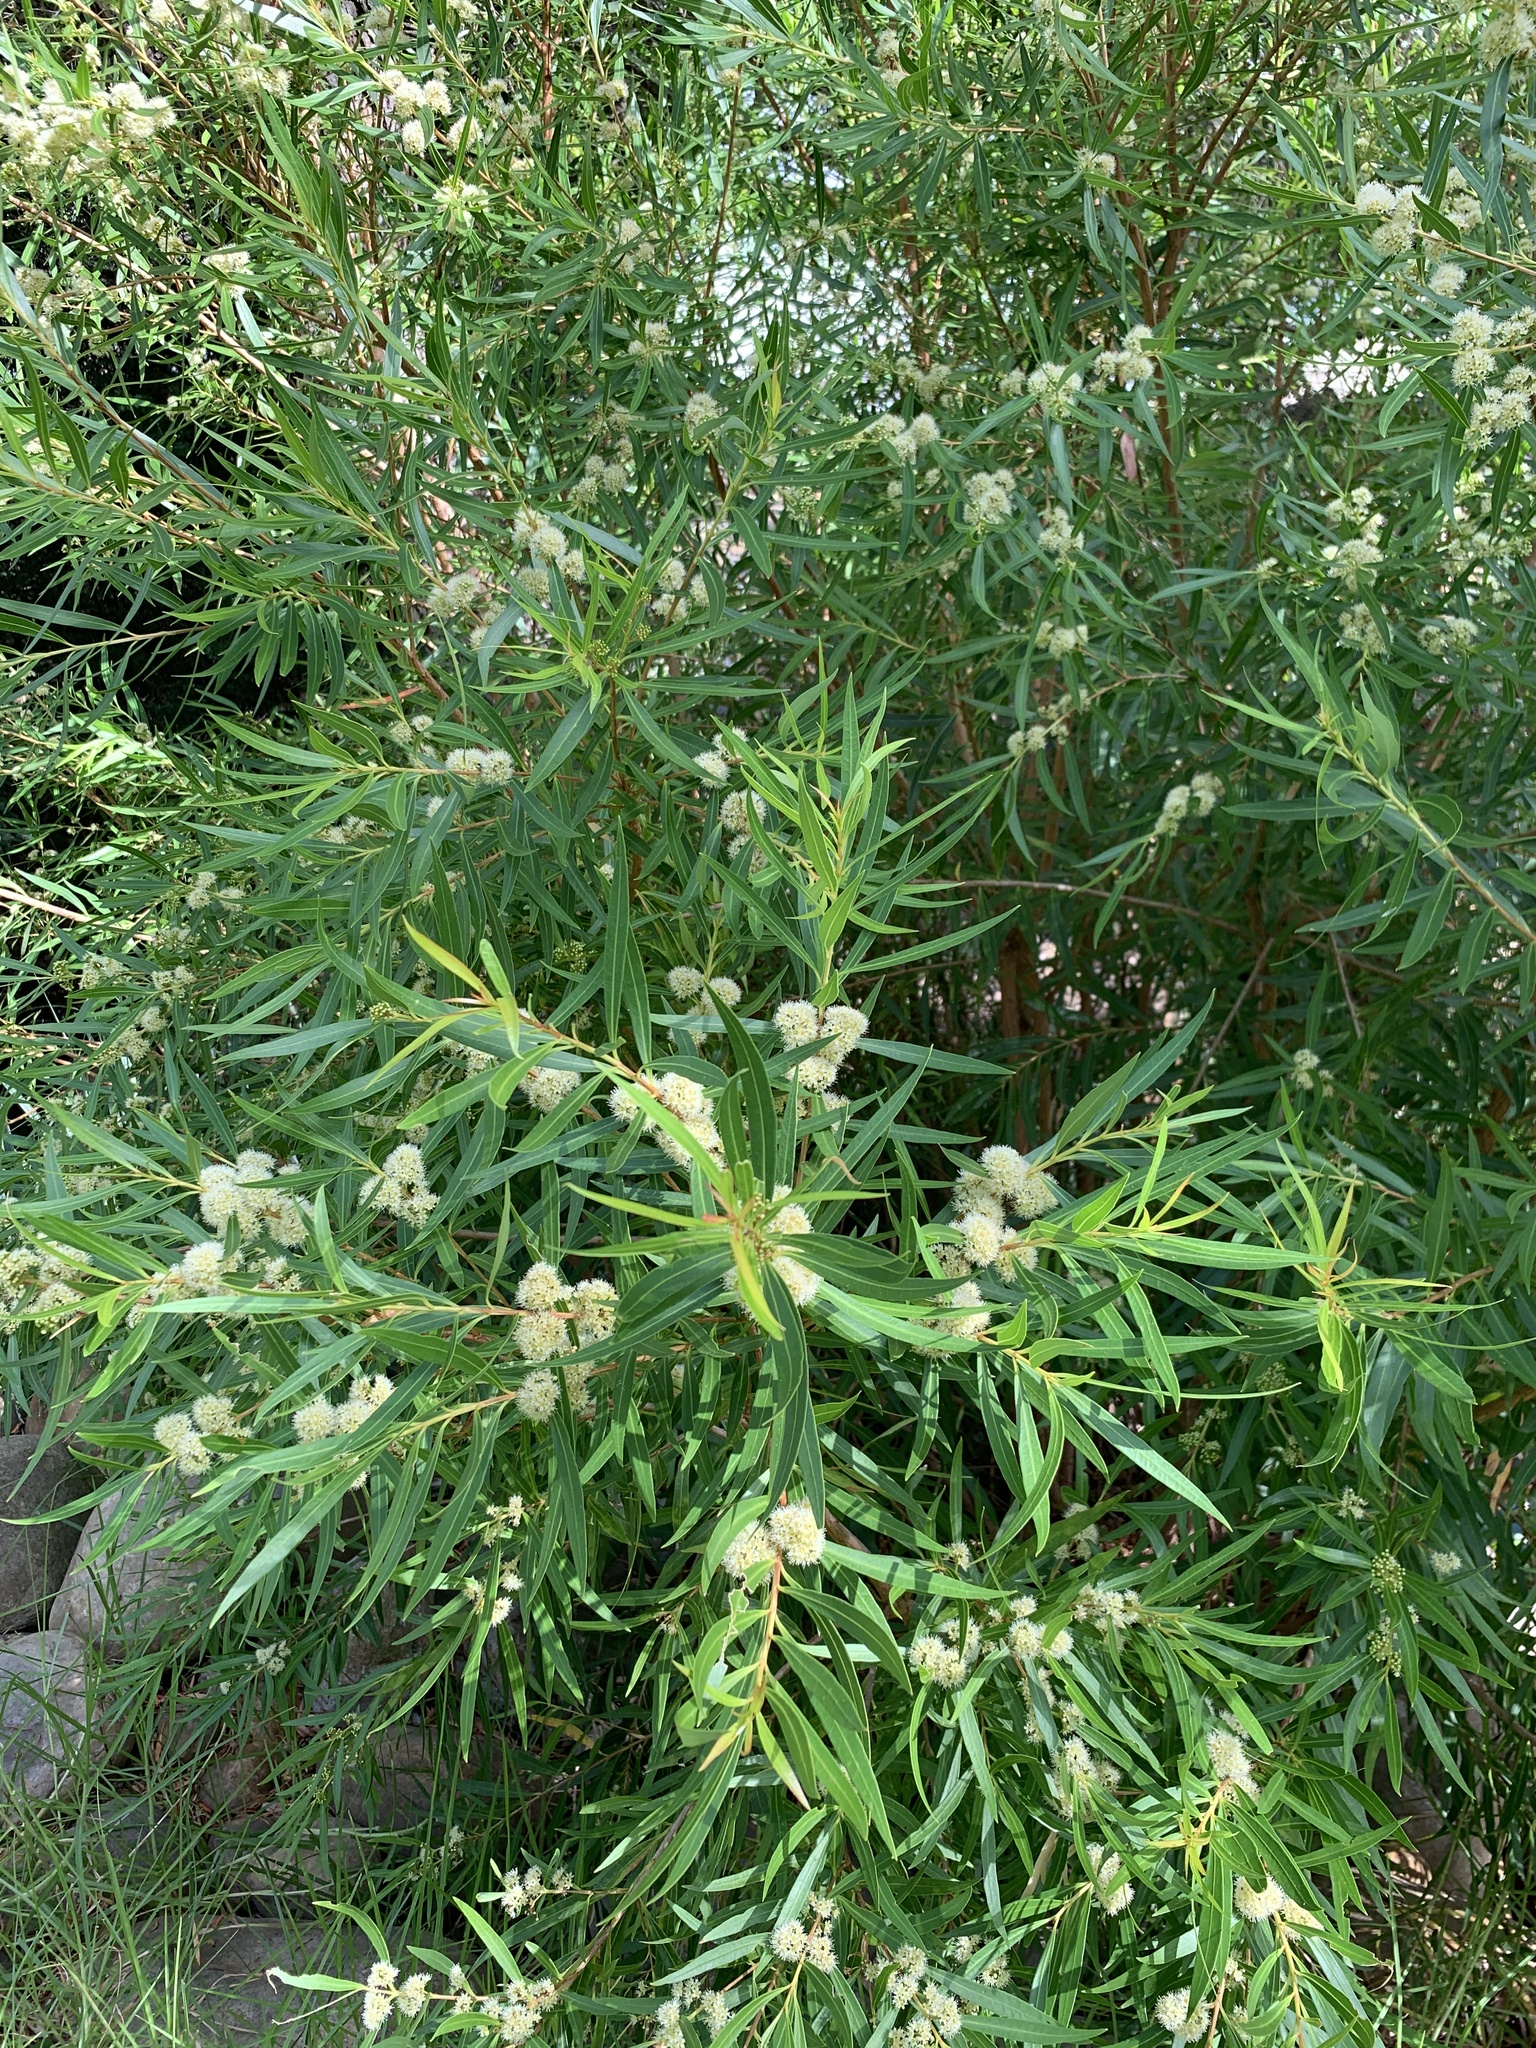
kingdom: Plantae
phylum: Tracheophyta
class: Magnoliopsida
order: Myrtales
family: Myrtaceae
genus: Callistemon
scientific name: Callistemon lanceolatus
